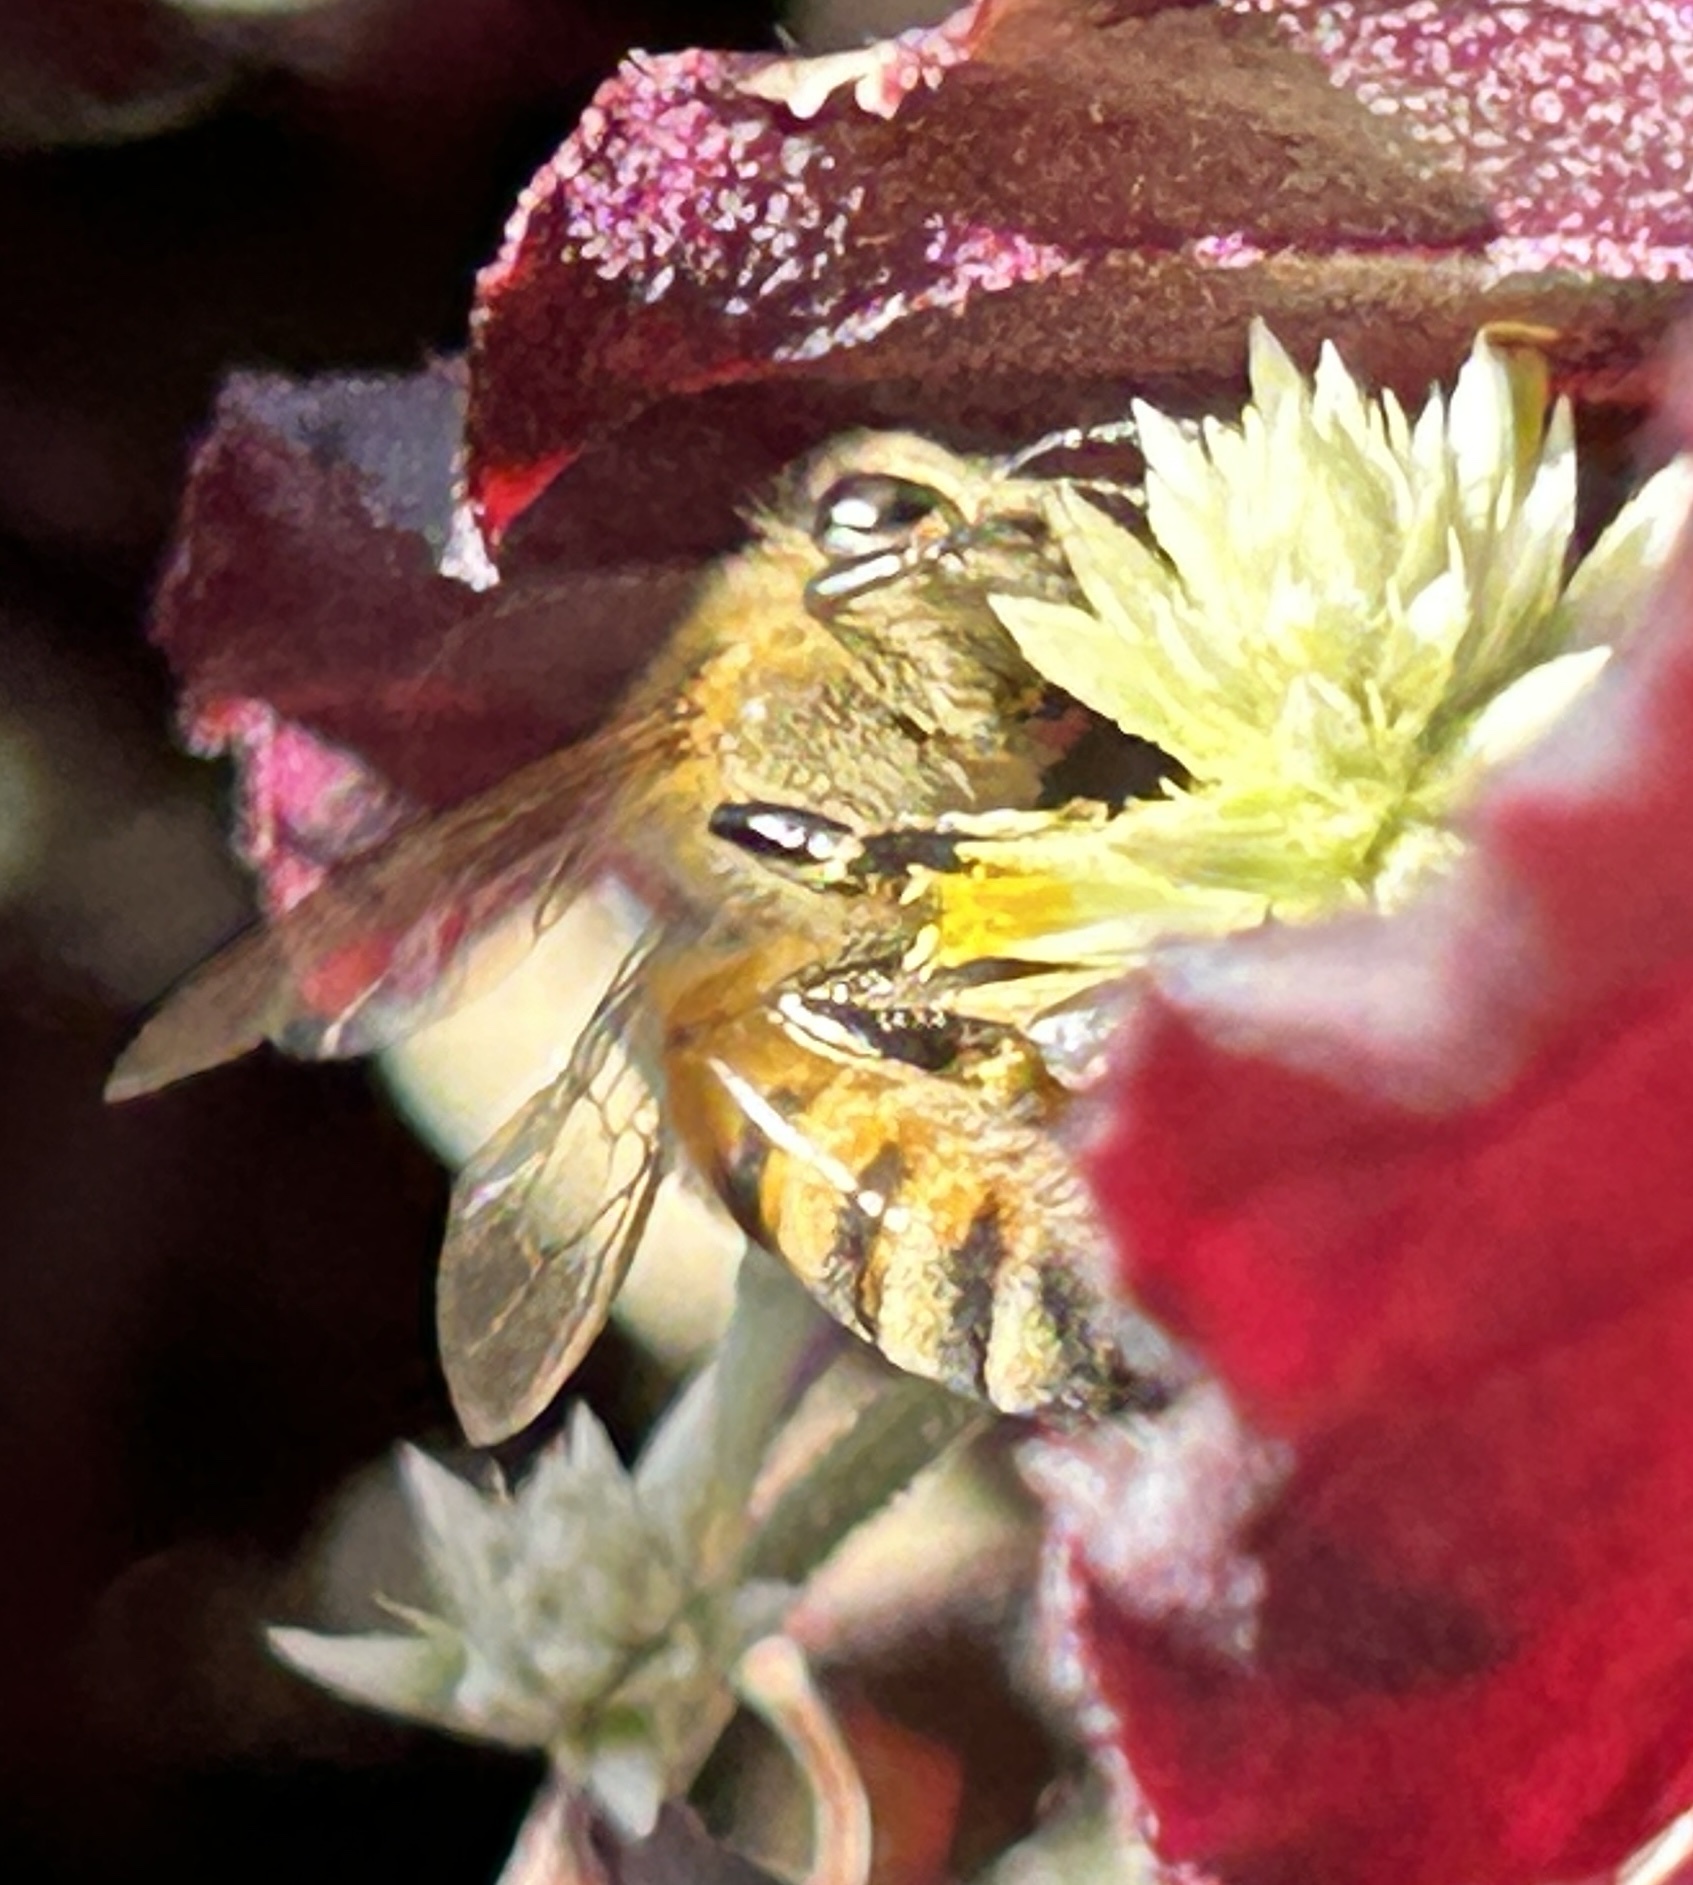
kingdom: Animalia
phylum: Arthropoda
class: Insecta
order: Hymenoptera
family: Apidae
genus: Apis
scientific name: Apis mellifera
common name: Honey bee
